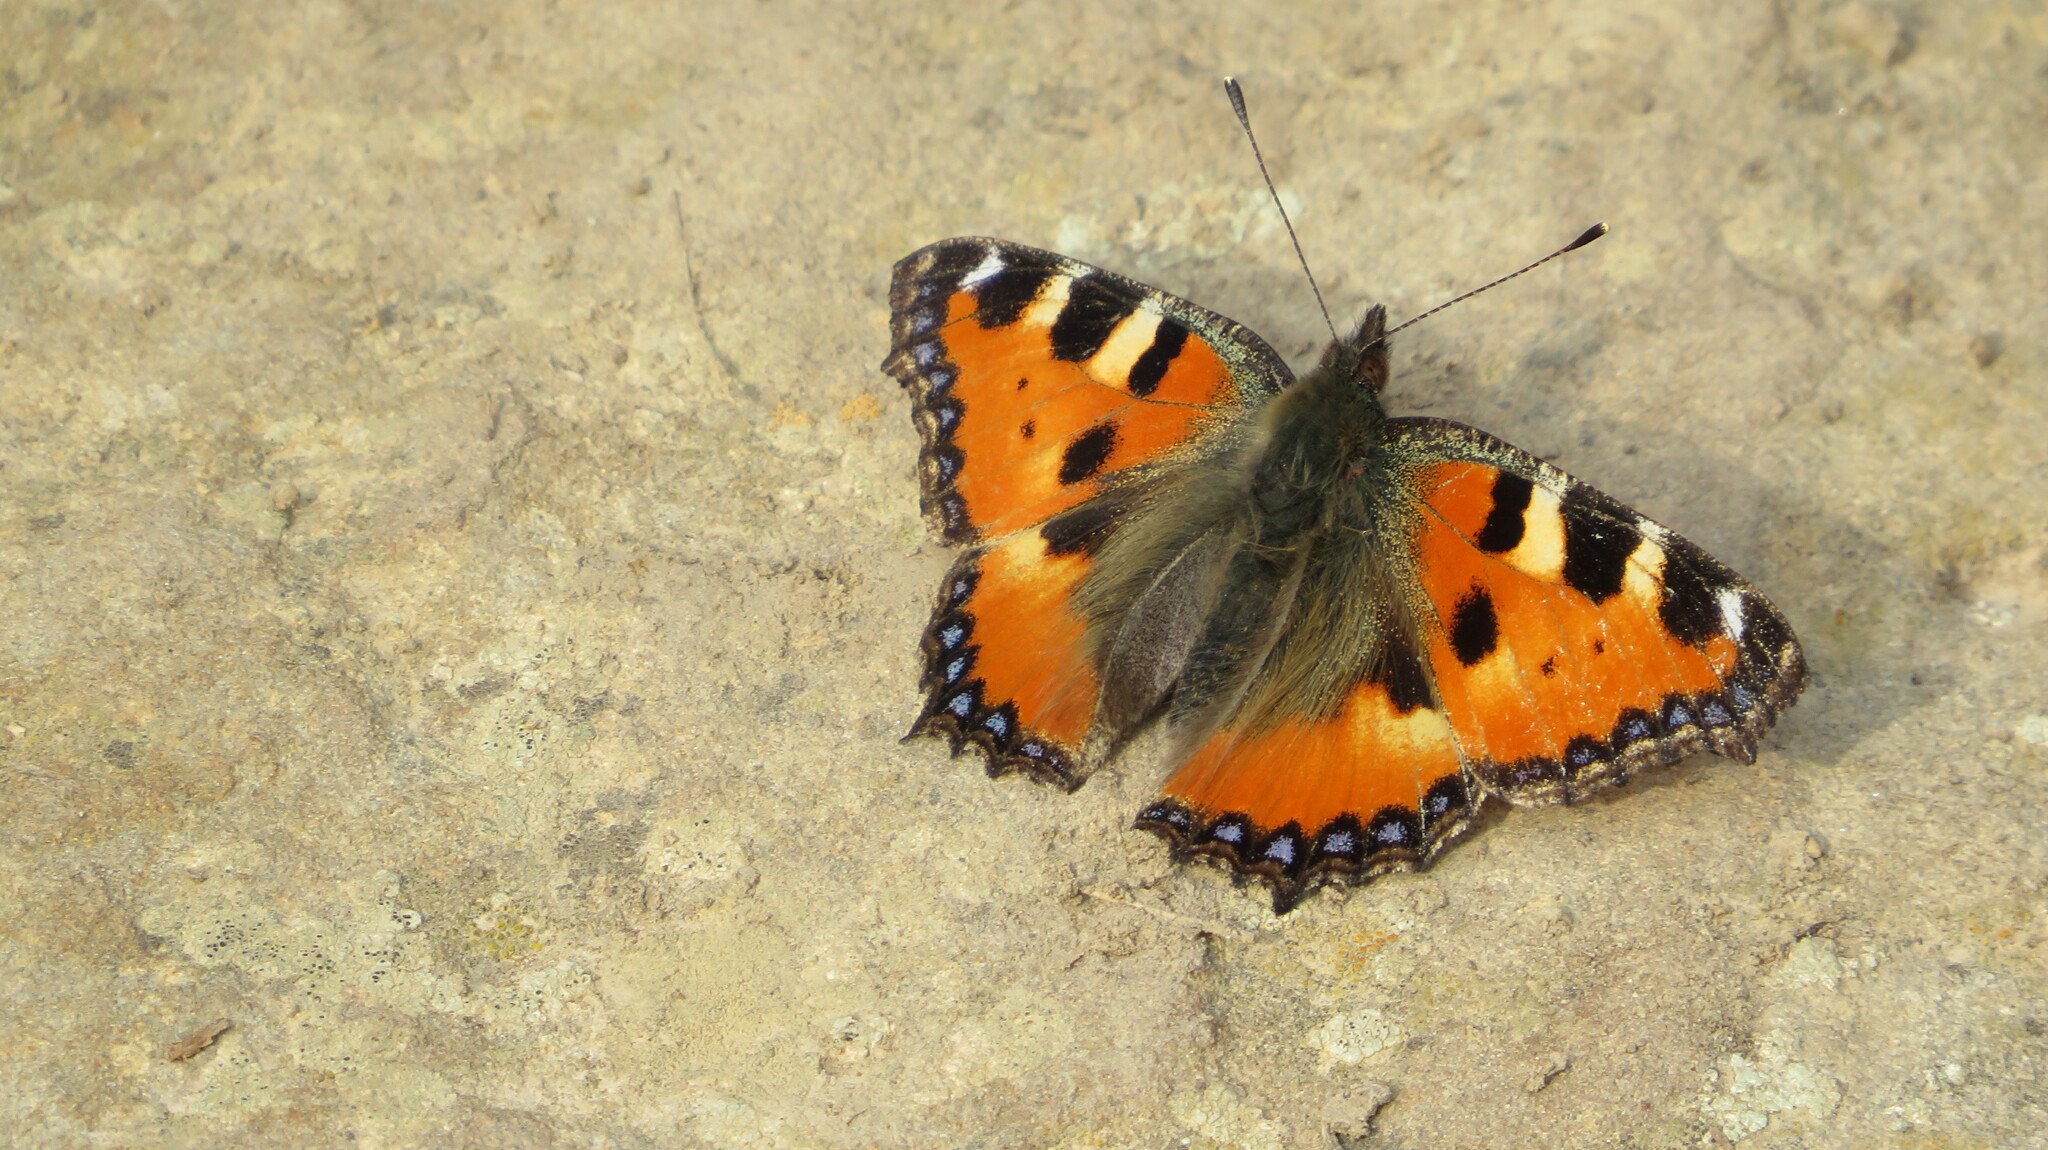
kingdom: Animalia
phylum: Arthropoda
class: Insecta
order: Lepidoptera
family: Nymphalidae
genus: Aglais
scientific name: Aglais urticae
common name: Small tortoiseshell
